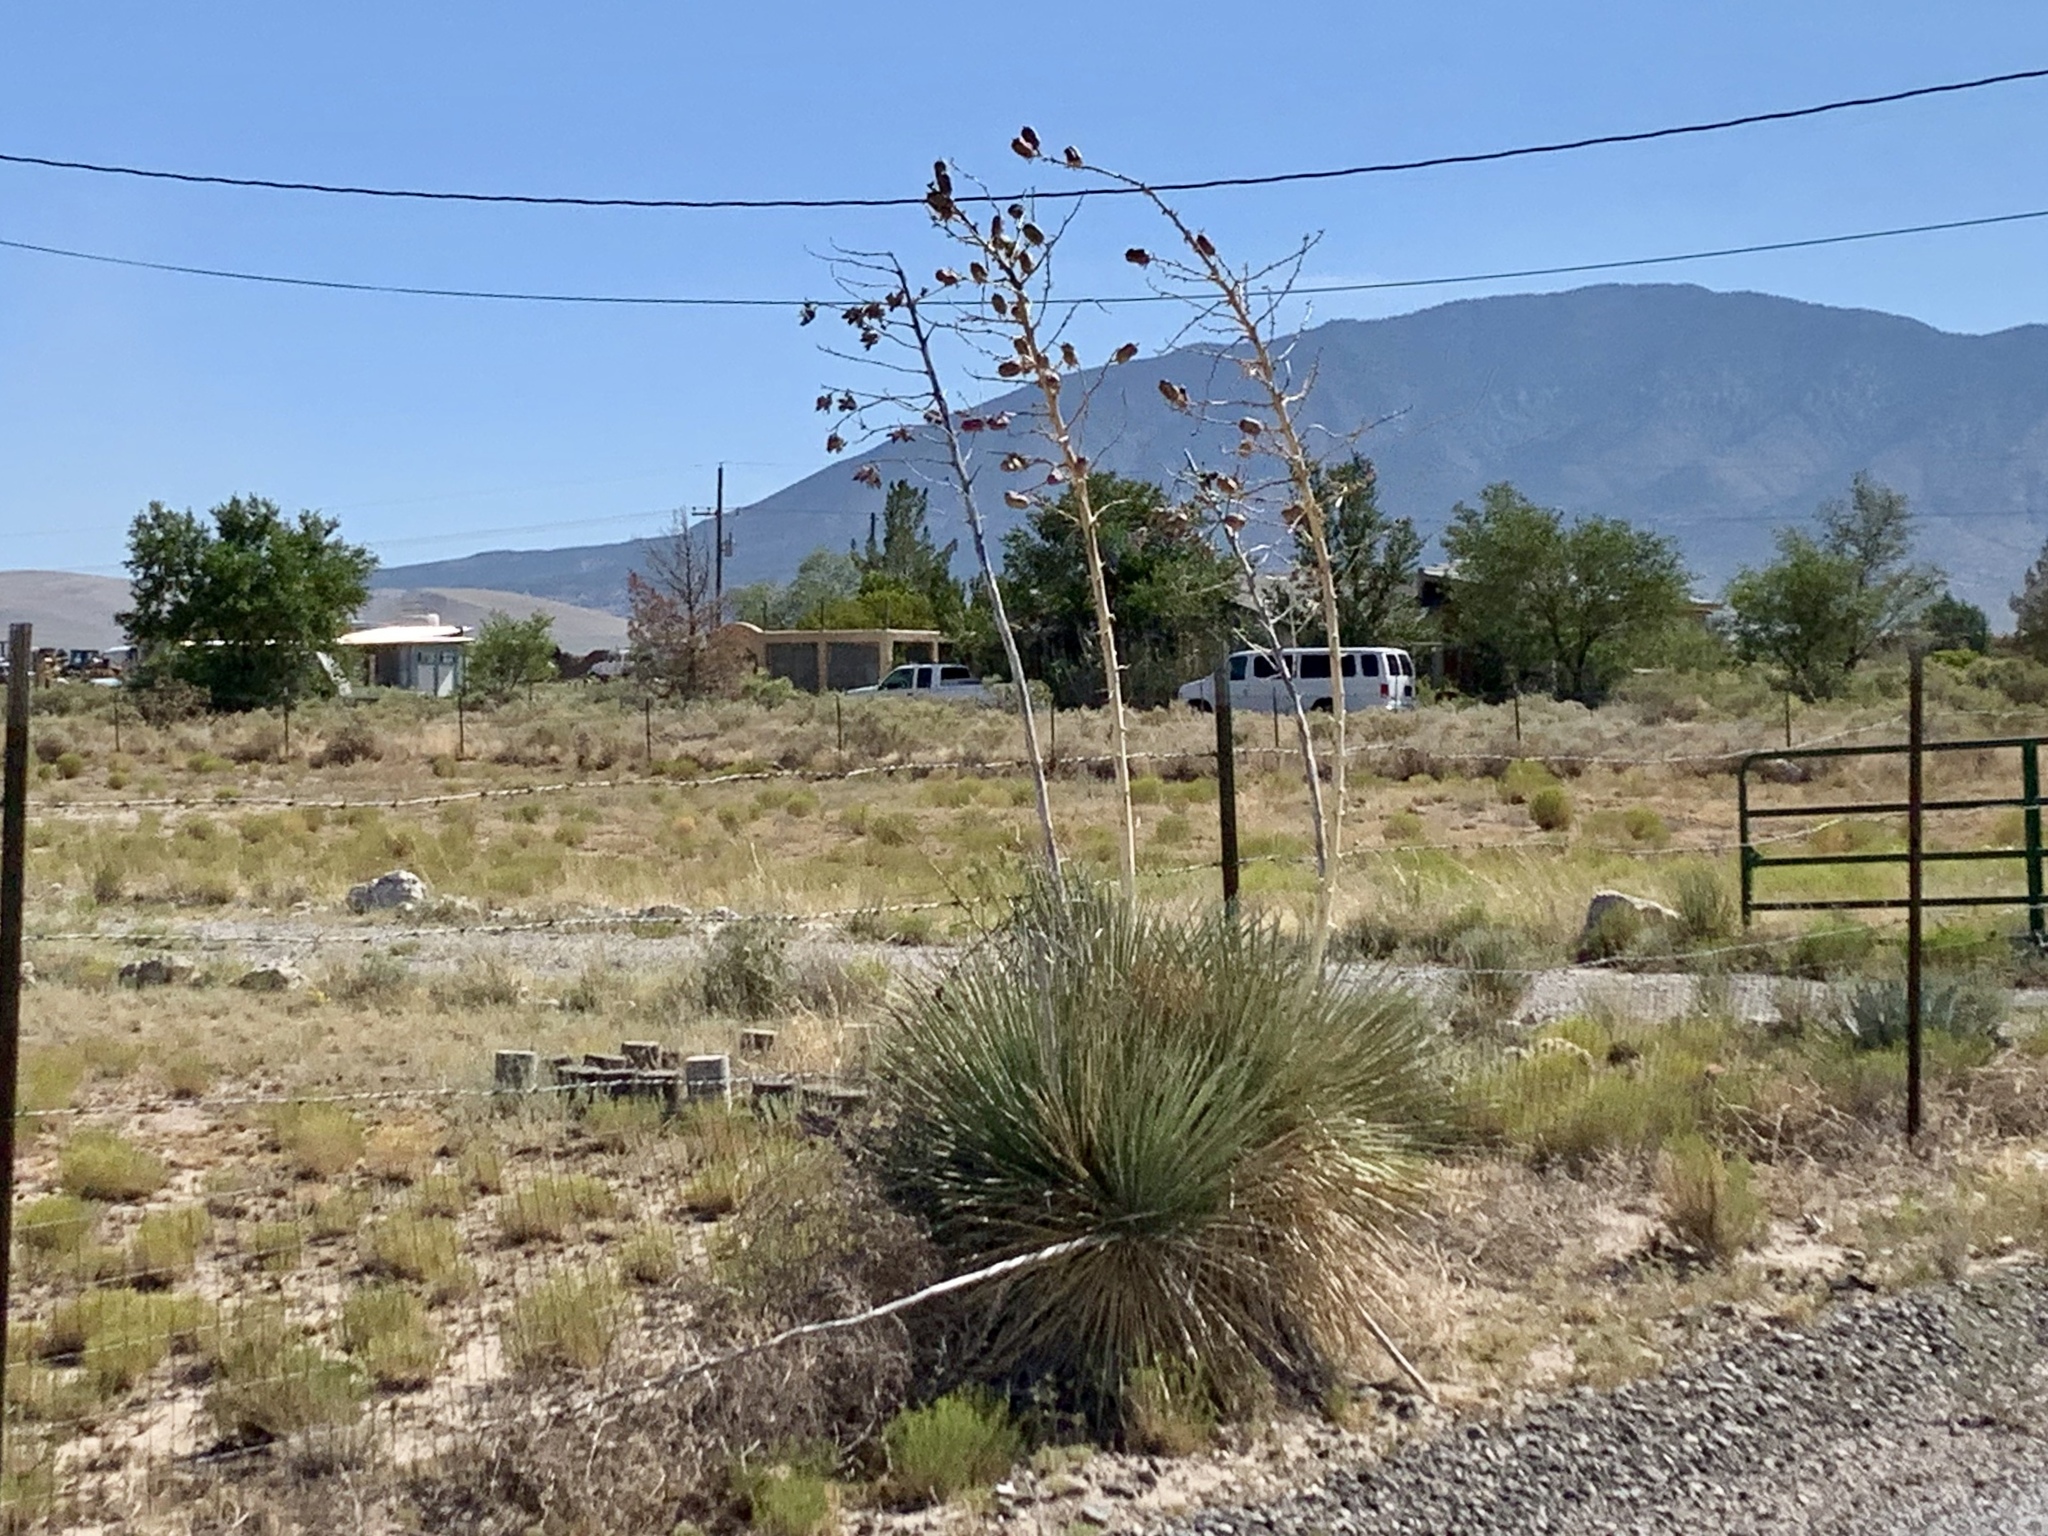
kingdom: Plantae
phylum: Tracheophyta
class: Liliopsida
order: Asparagales
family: Asparagaceae
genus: Yucca
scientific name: Yucca elata
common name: Palmella
